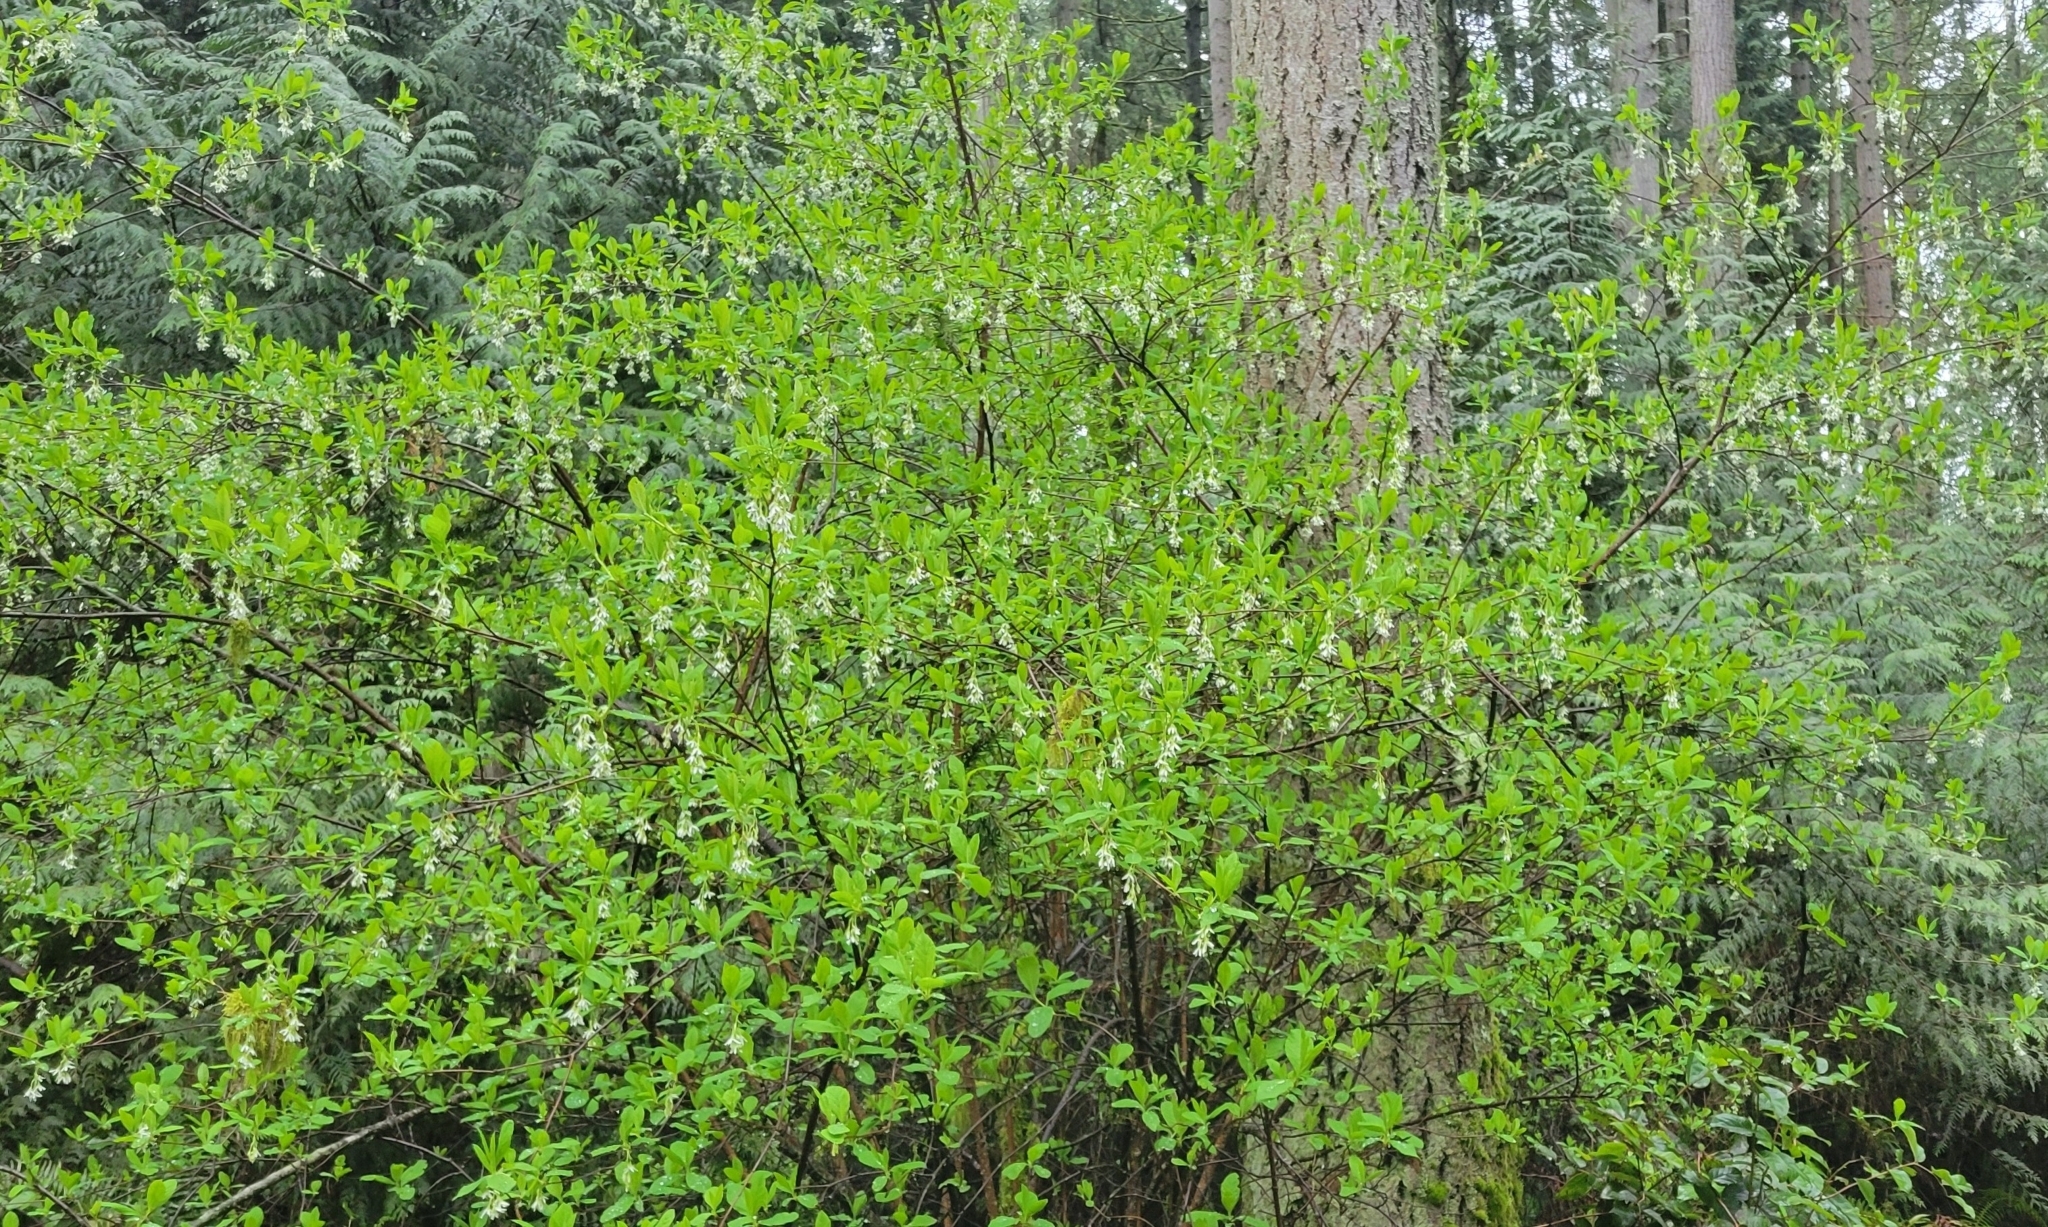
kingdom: Plantae
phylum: Tracheophyta
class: Magnoliopsida
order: Rosales
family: Rosaceae
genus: Oemleria
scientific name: Oemleria cerasiformis
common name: Osoberry
